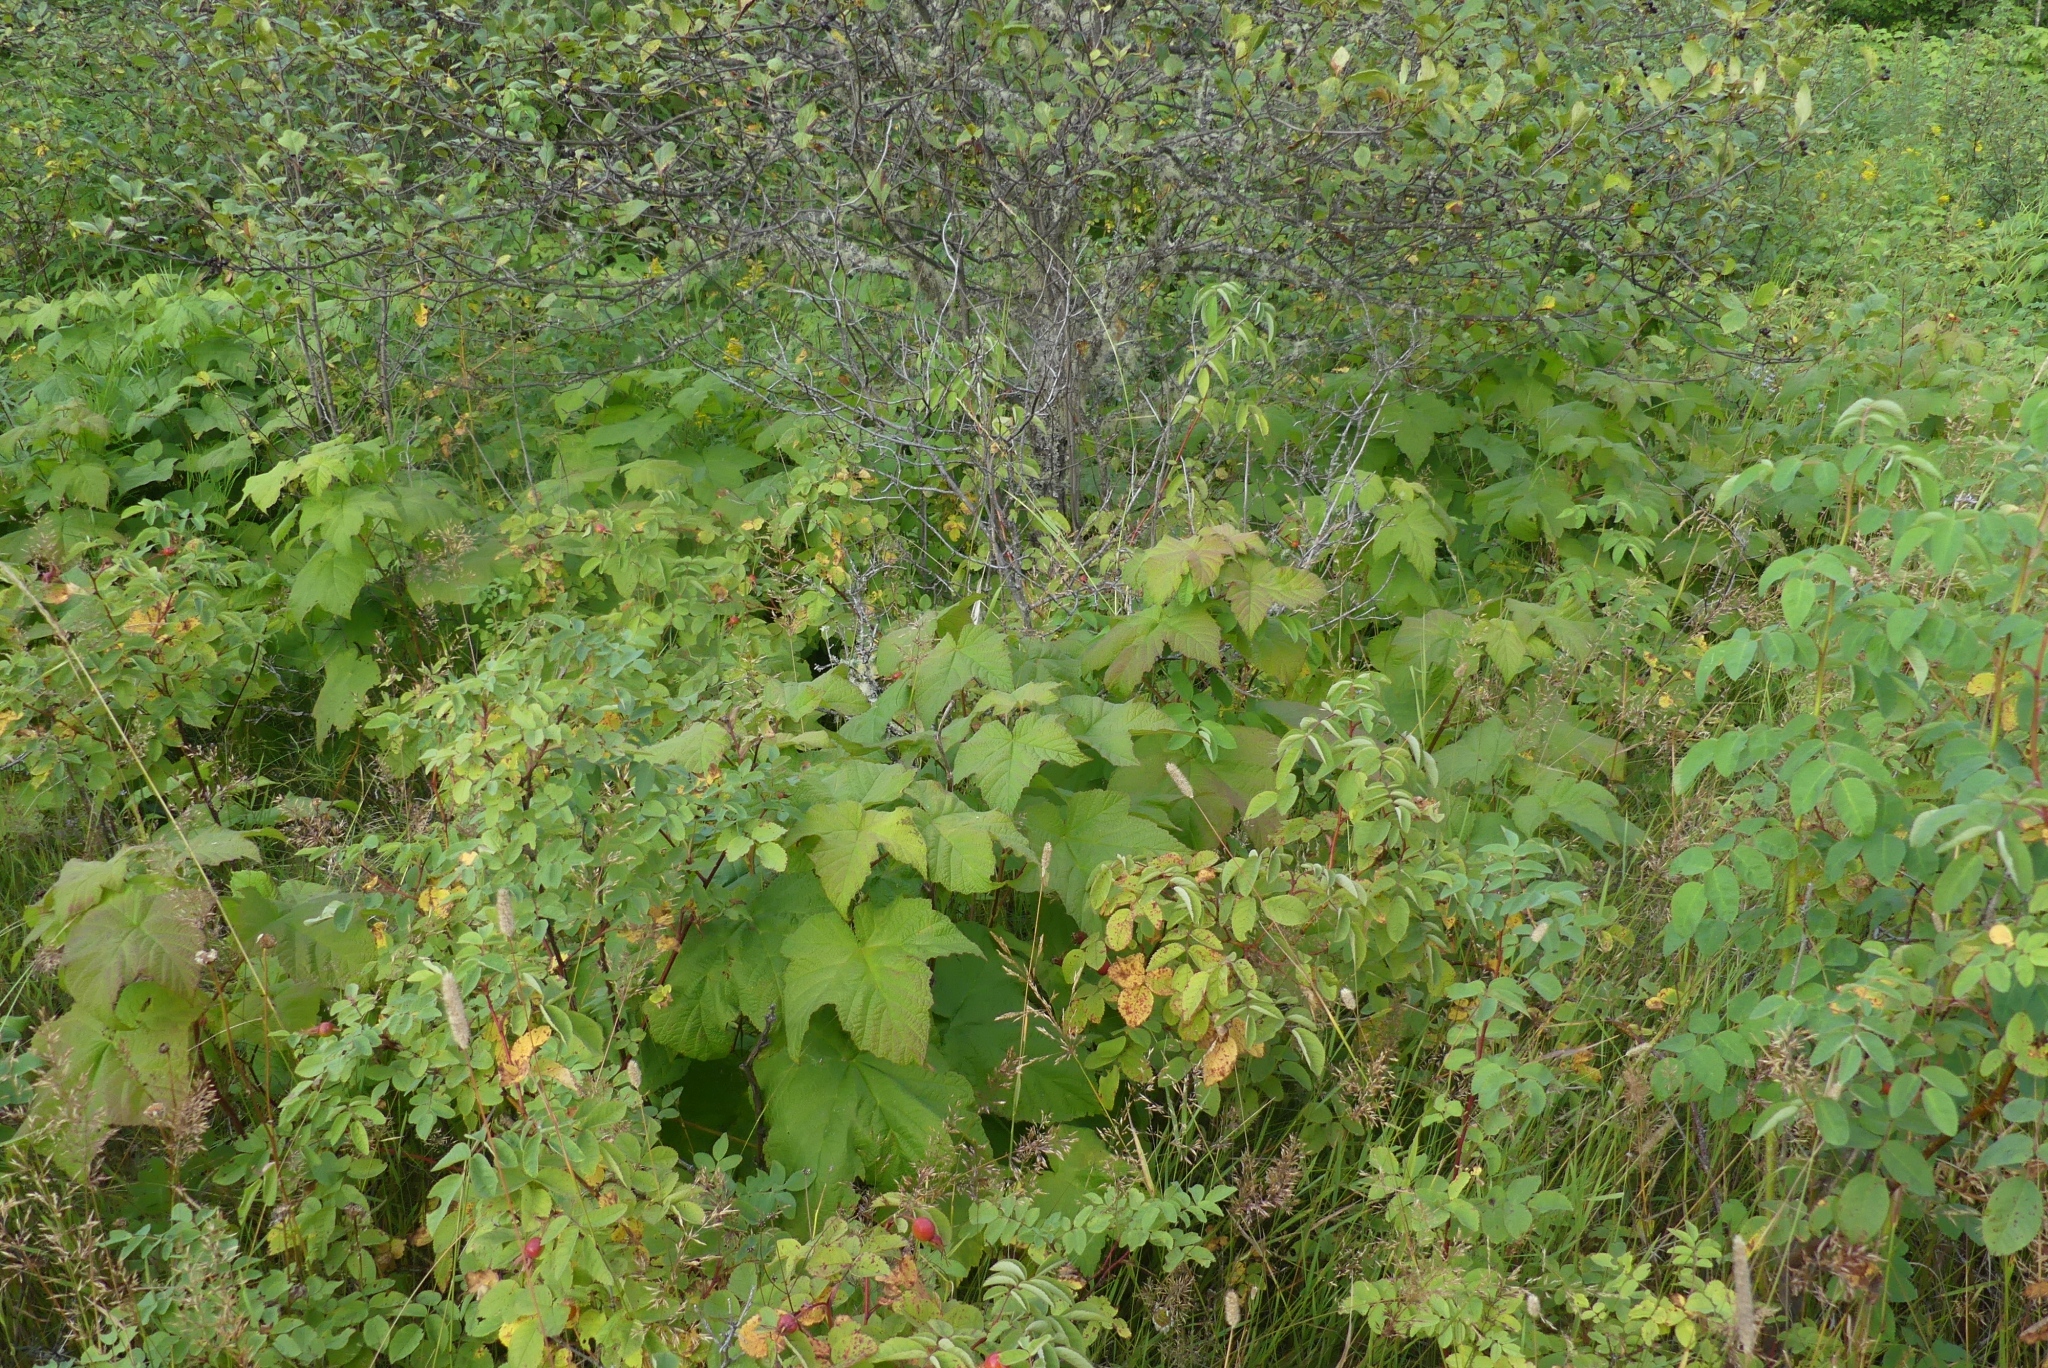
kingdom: Plantae
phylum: Tracheophyta
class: Magnoliopsida
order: Rosales
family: Rosaceae
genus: Rubus
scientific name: Rubus parviflorus
